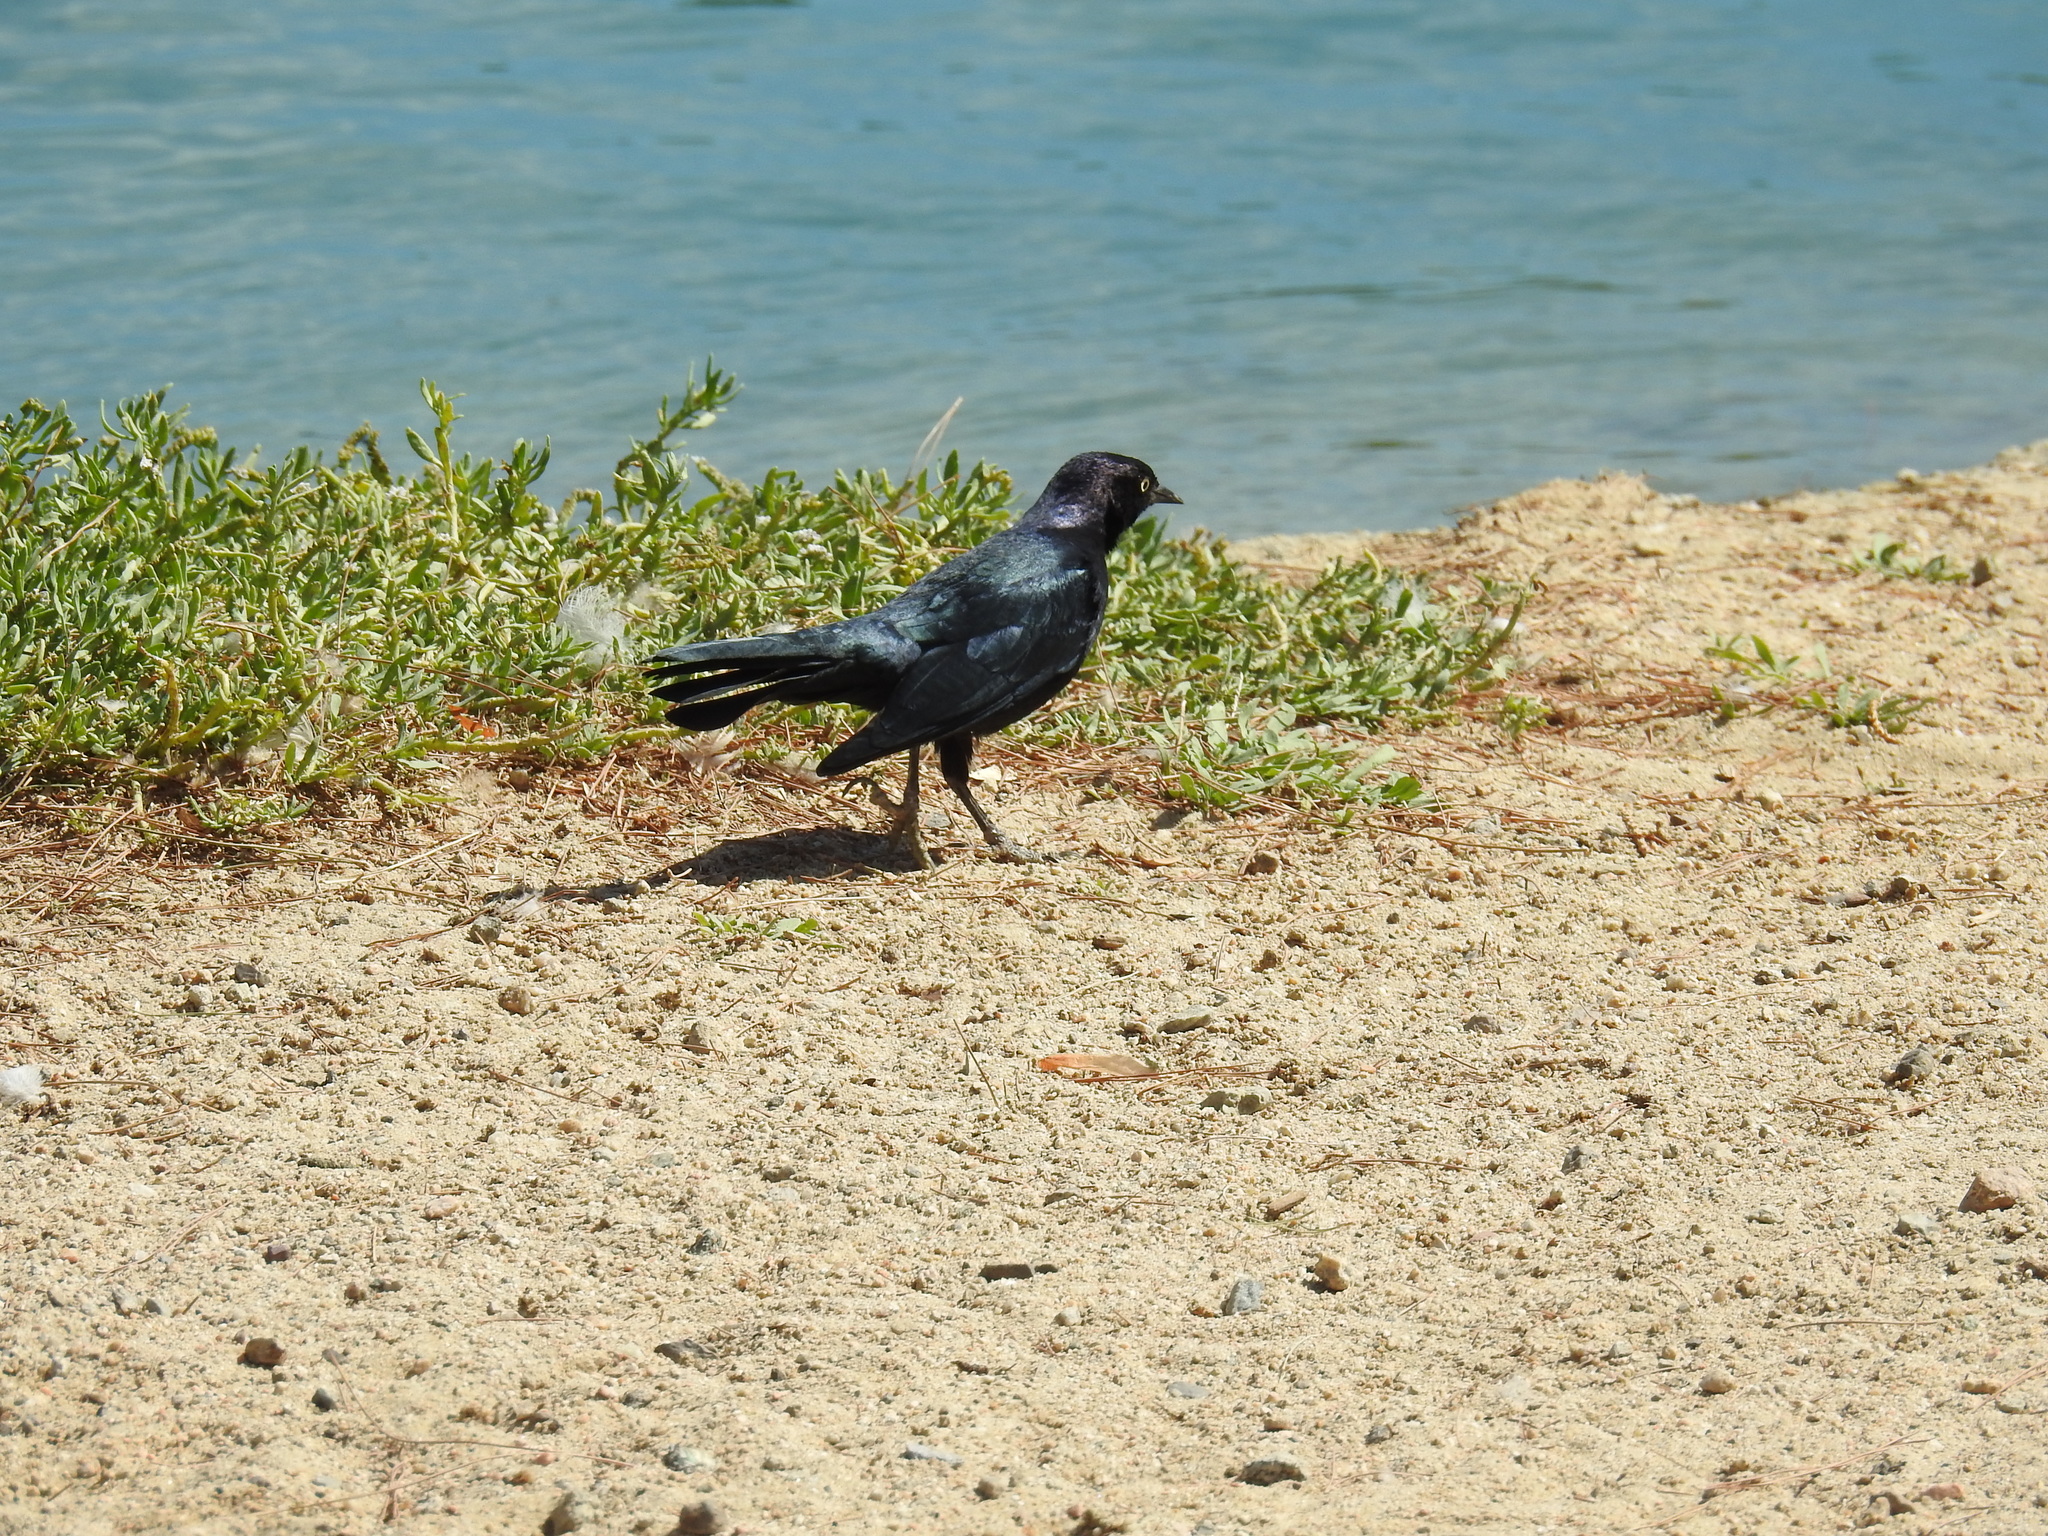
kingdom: Animalia
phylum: Chordata
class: Aves
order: Passeriformes
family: Icteridae
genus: Euphagus
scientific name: Euphagus cyanocephalus
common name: Brewer's blackbird
